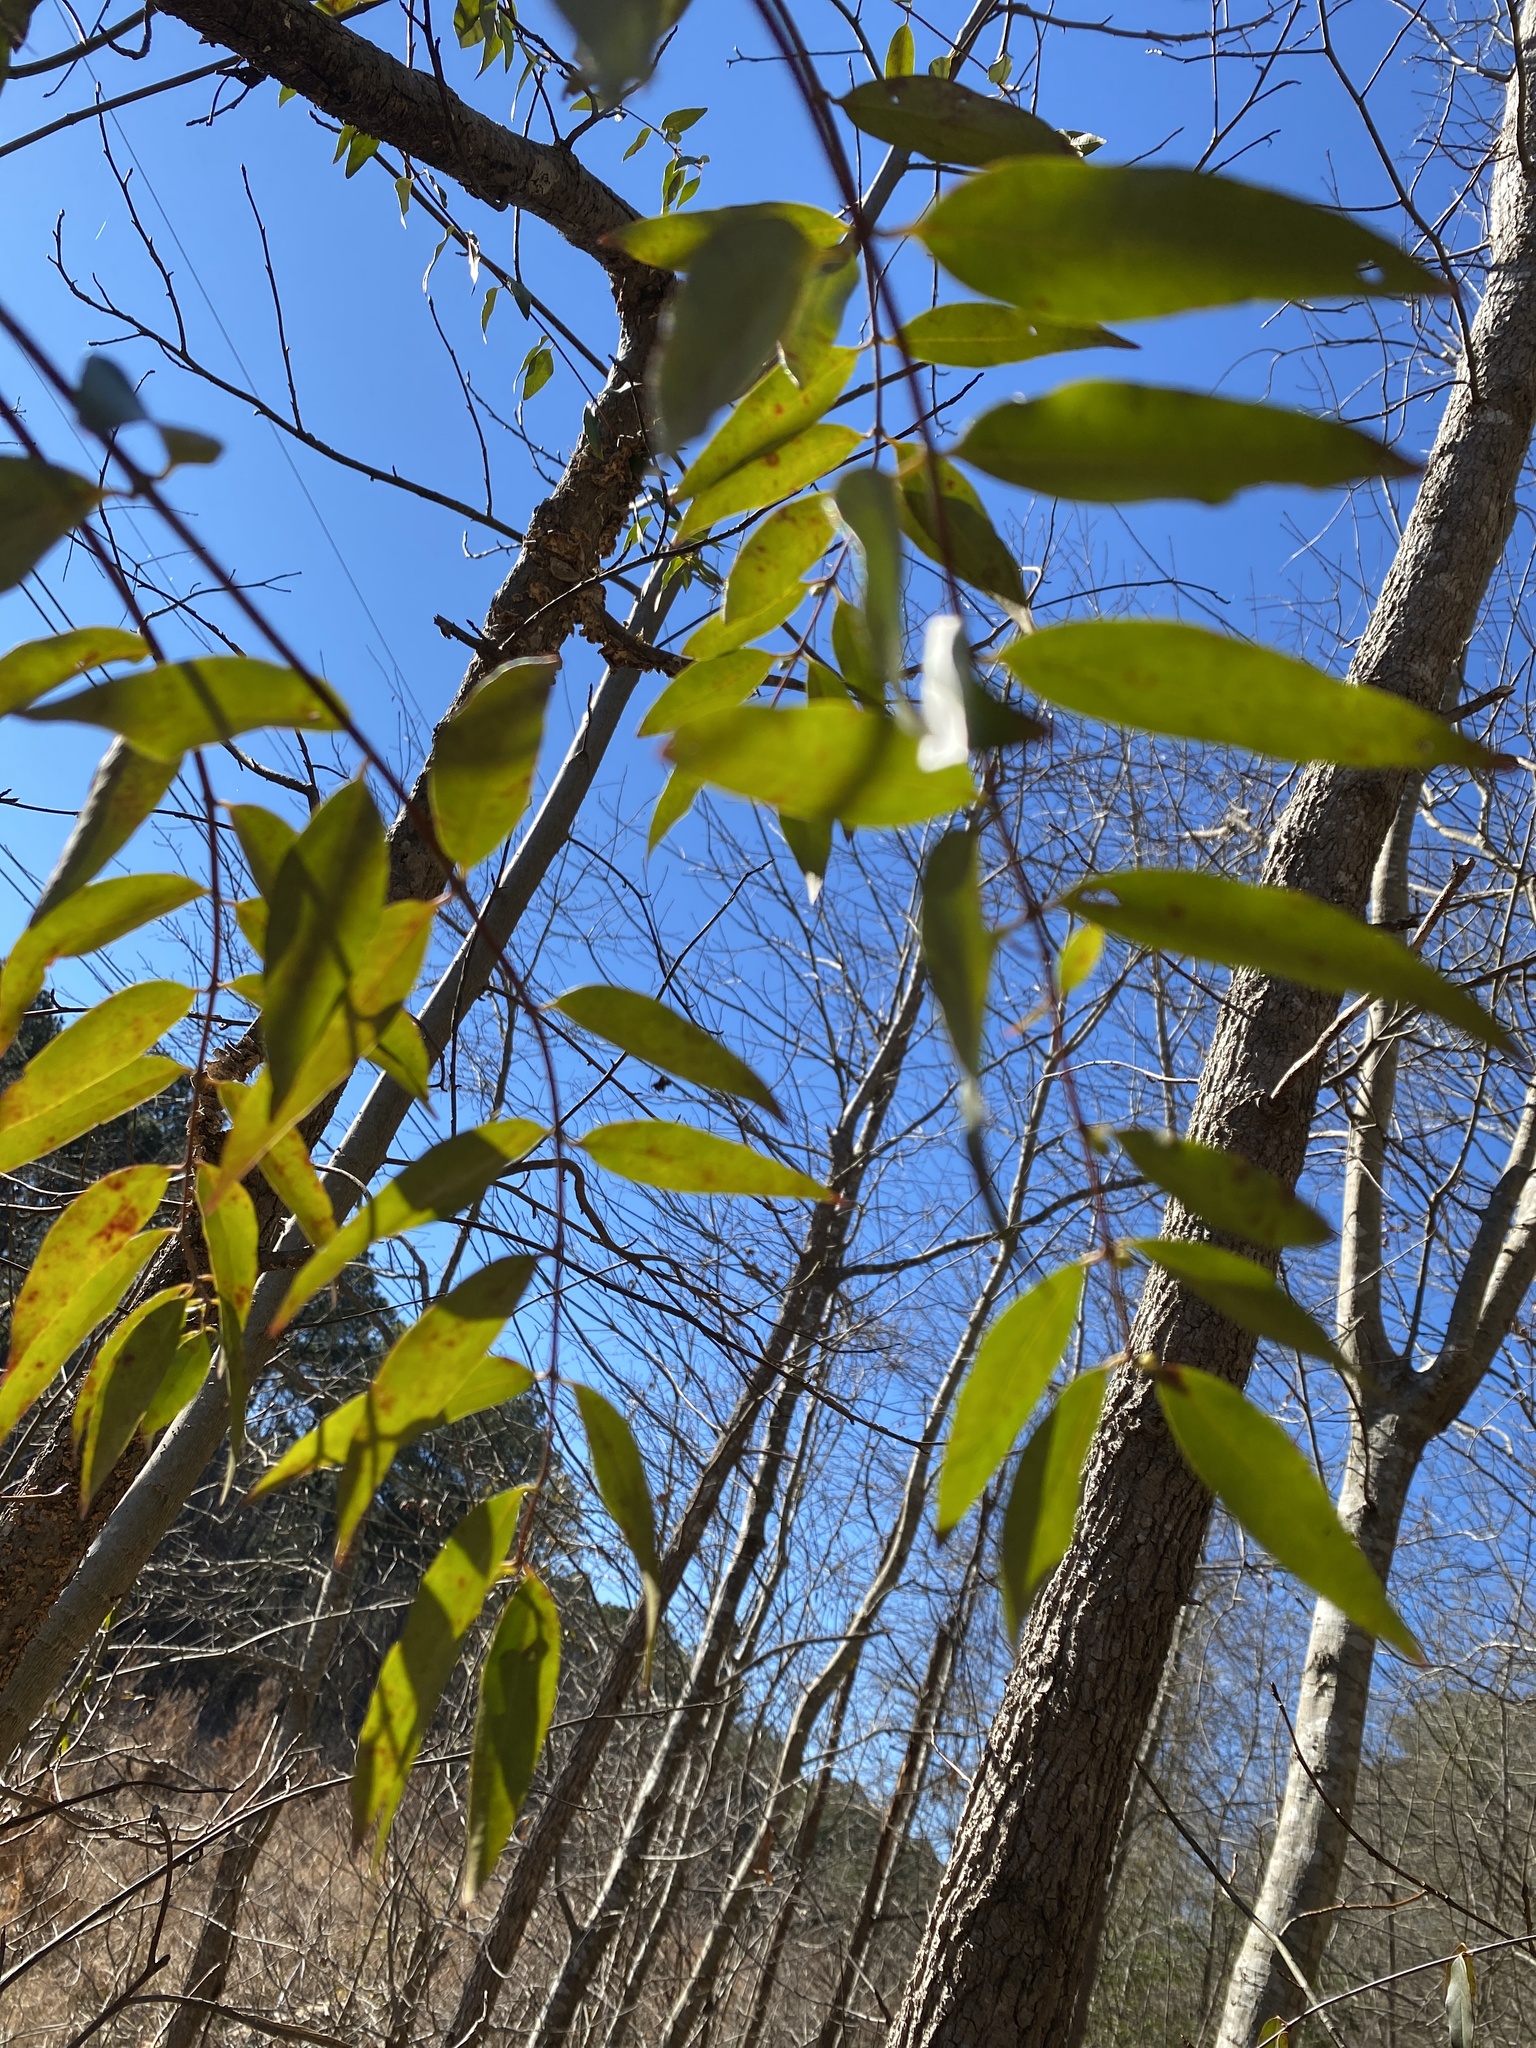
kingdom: Plantae
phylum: Tracheophyta
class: Magnoliopsida
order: Gentianales
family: Gelsemiaceae
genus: Gelsemium
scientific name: Gelsemium sempervirens
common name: Carolina-jasmine
